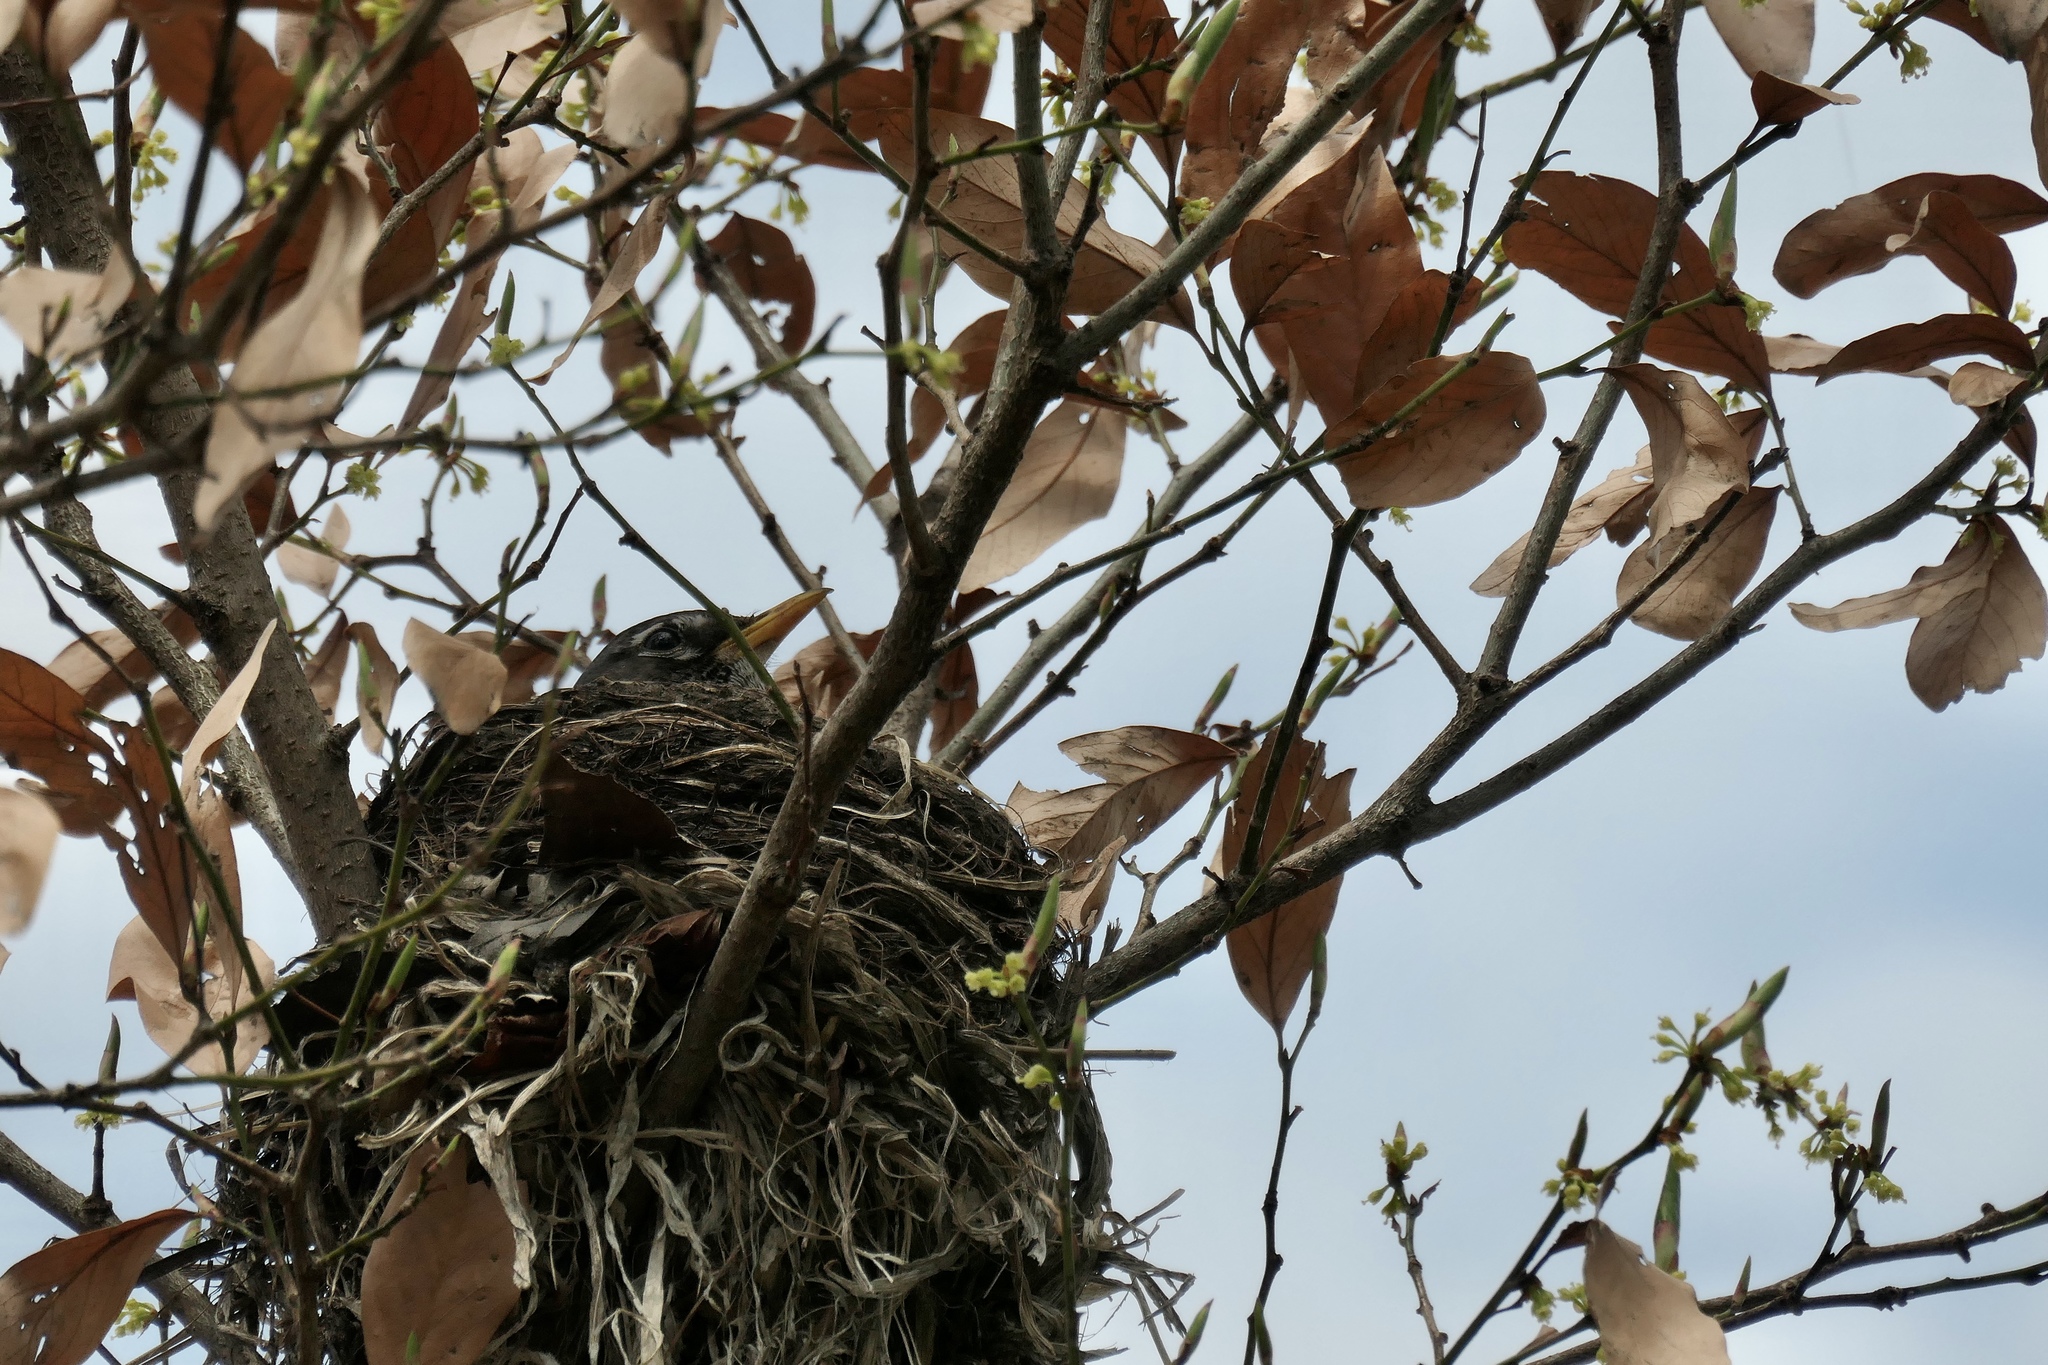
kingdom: Animalia
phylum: Chordata
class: Aves
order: Passeriformes
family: Turdidae
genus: Turdus
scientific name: Turdus migratorius
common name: American robin
